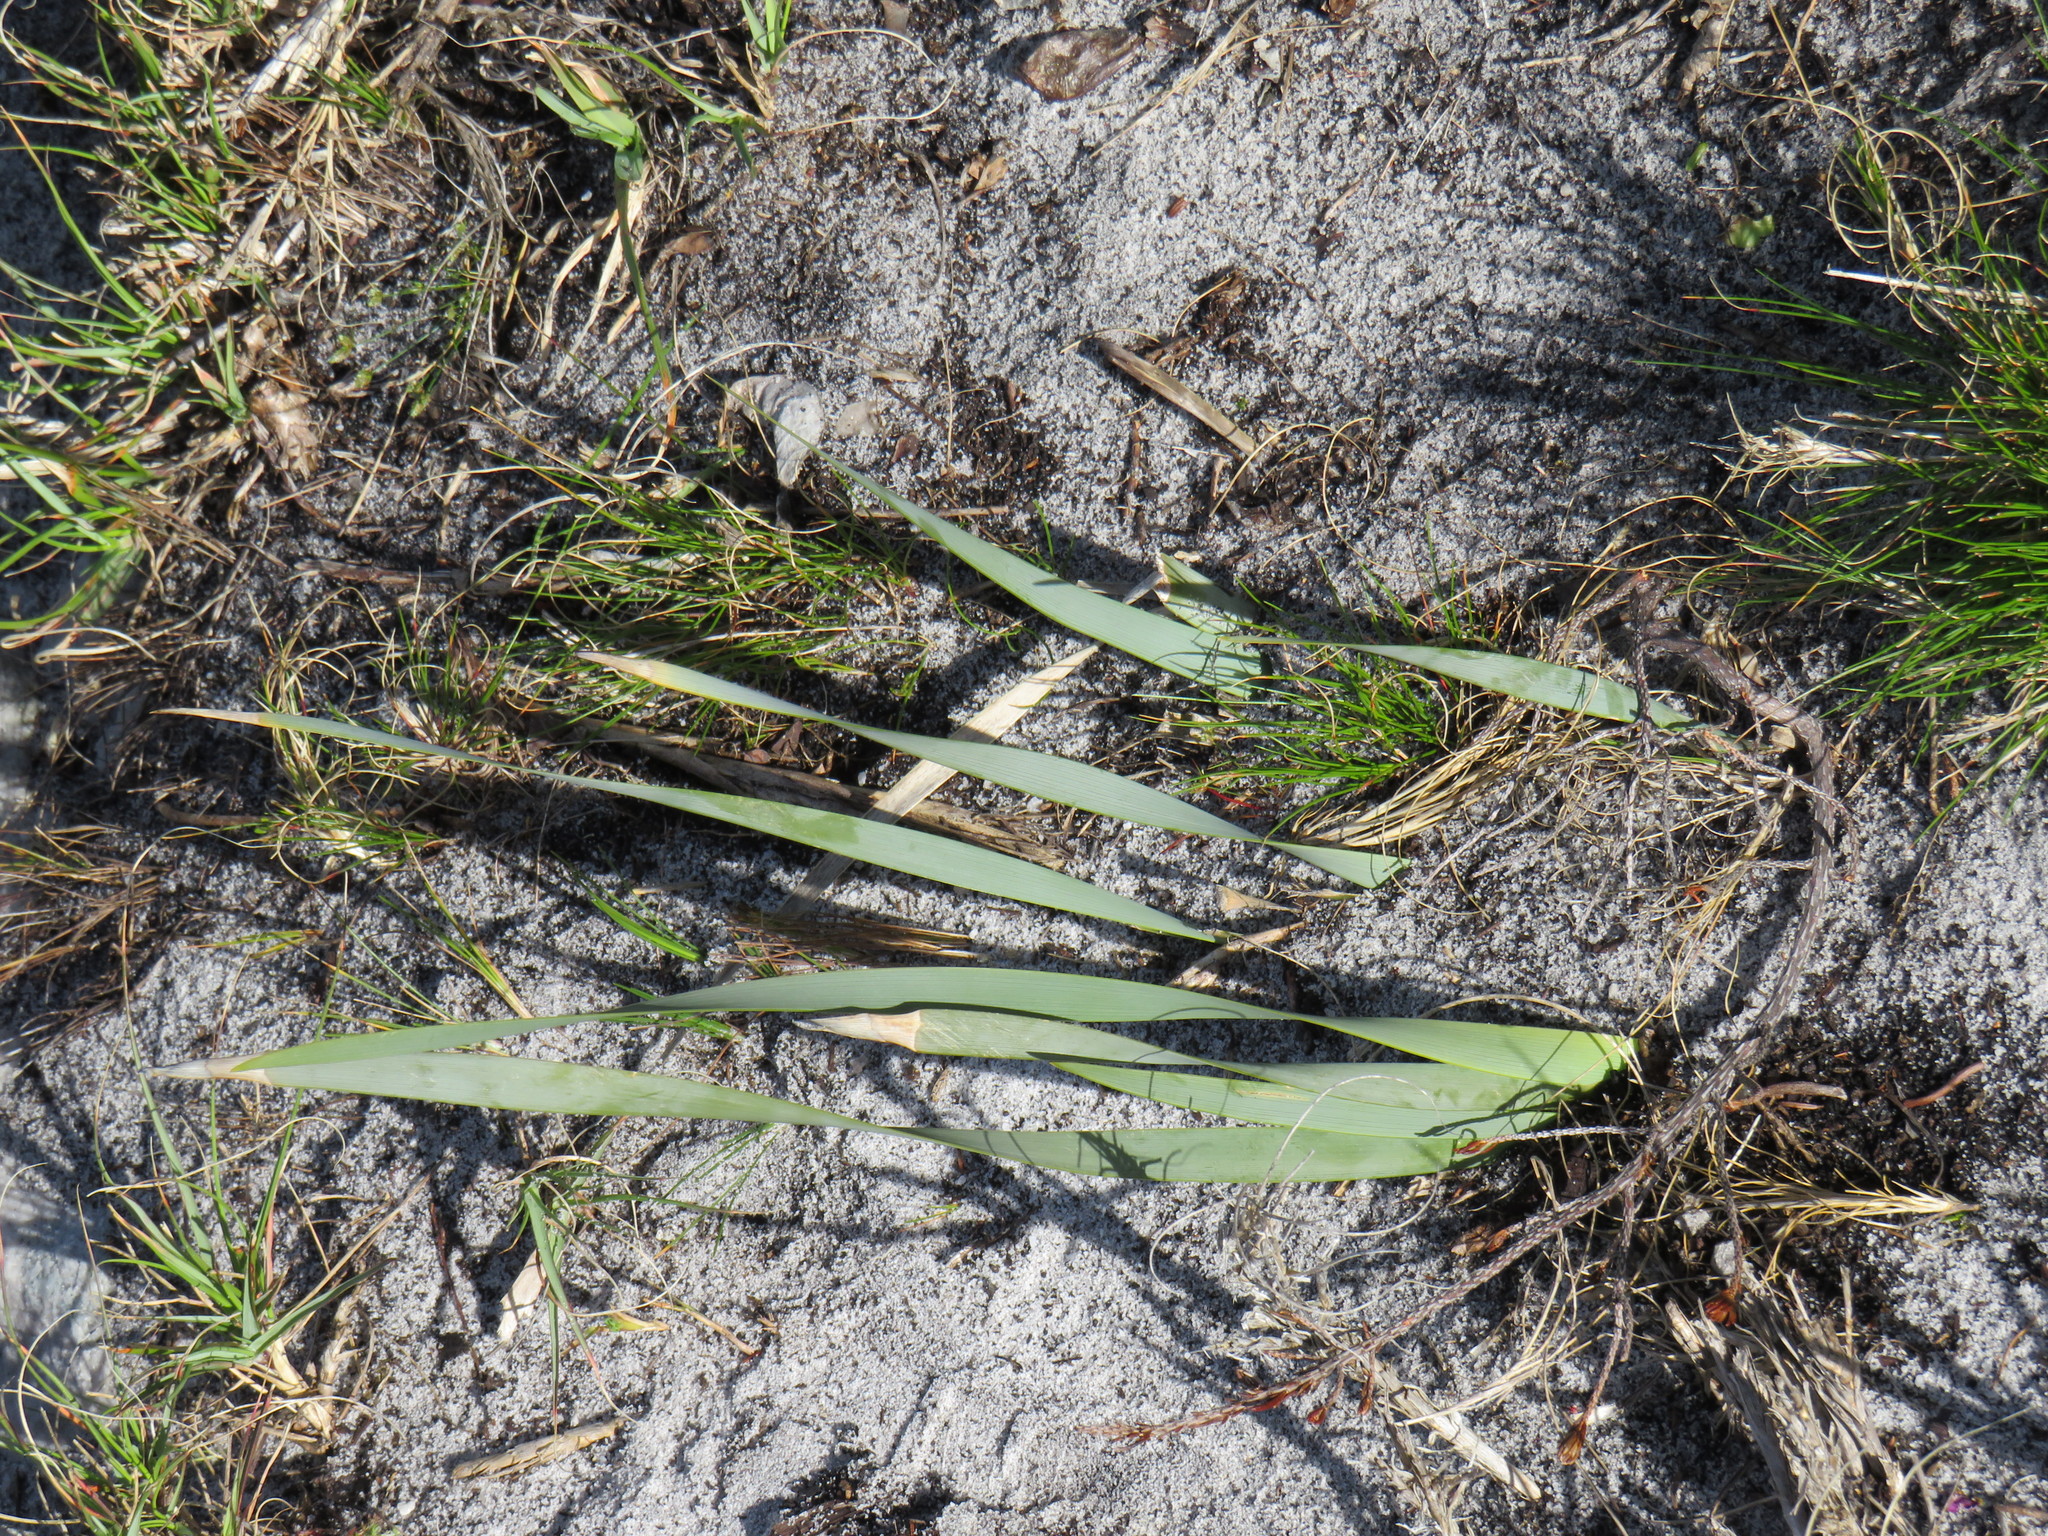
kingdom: Plantae
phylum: Tracheophyta
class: Liliopsida
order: Asparagales
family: Iridaceae
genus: Bobartia
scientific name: Bobartia gladiata
